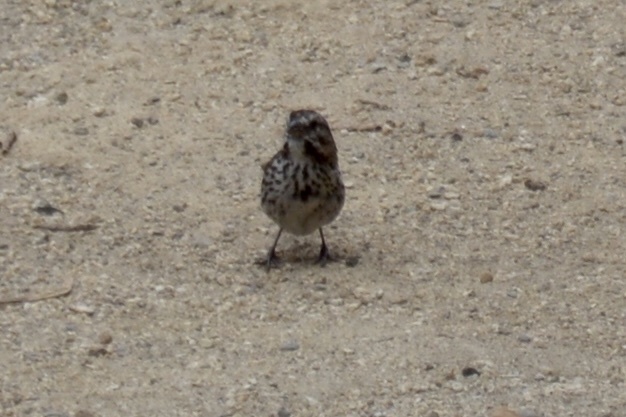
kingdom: Animalia
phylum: Chordata
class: Aves
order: Passeriformes
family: Passerellidae
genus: Melospiza
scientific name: Melospiza melodia
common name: Song sparrow
